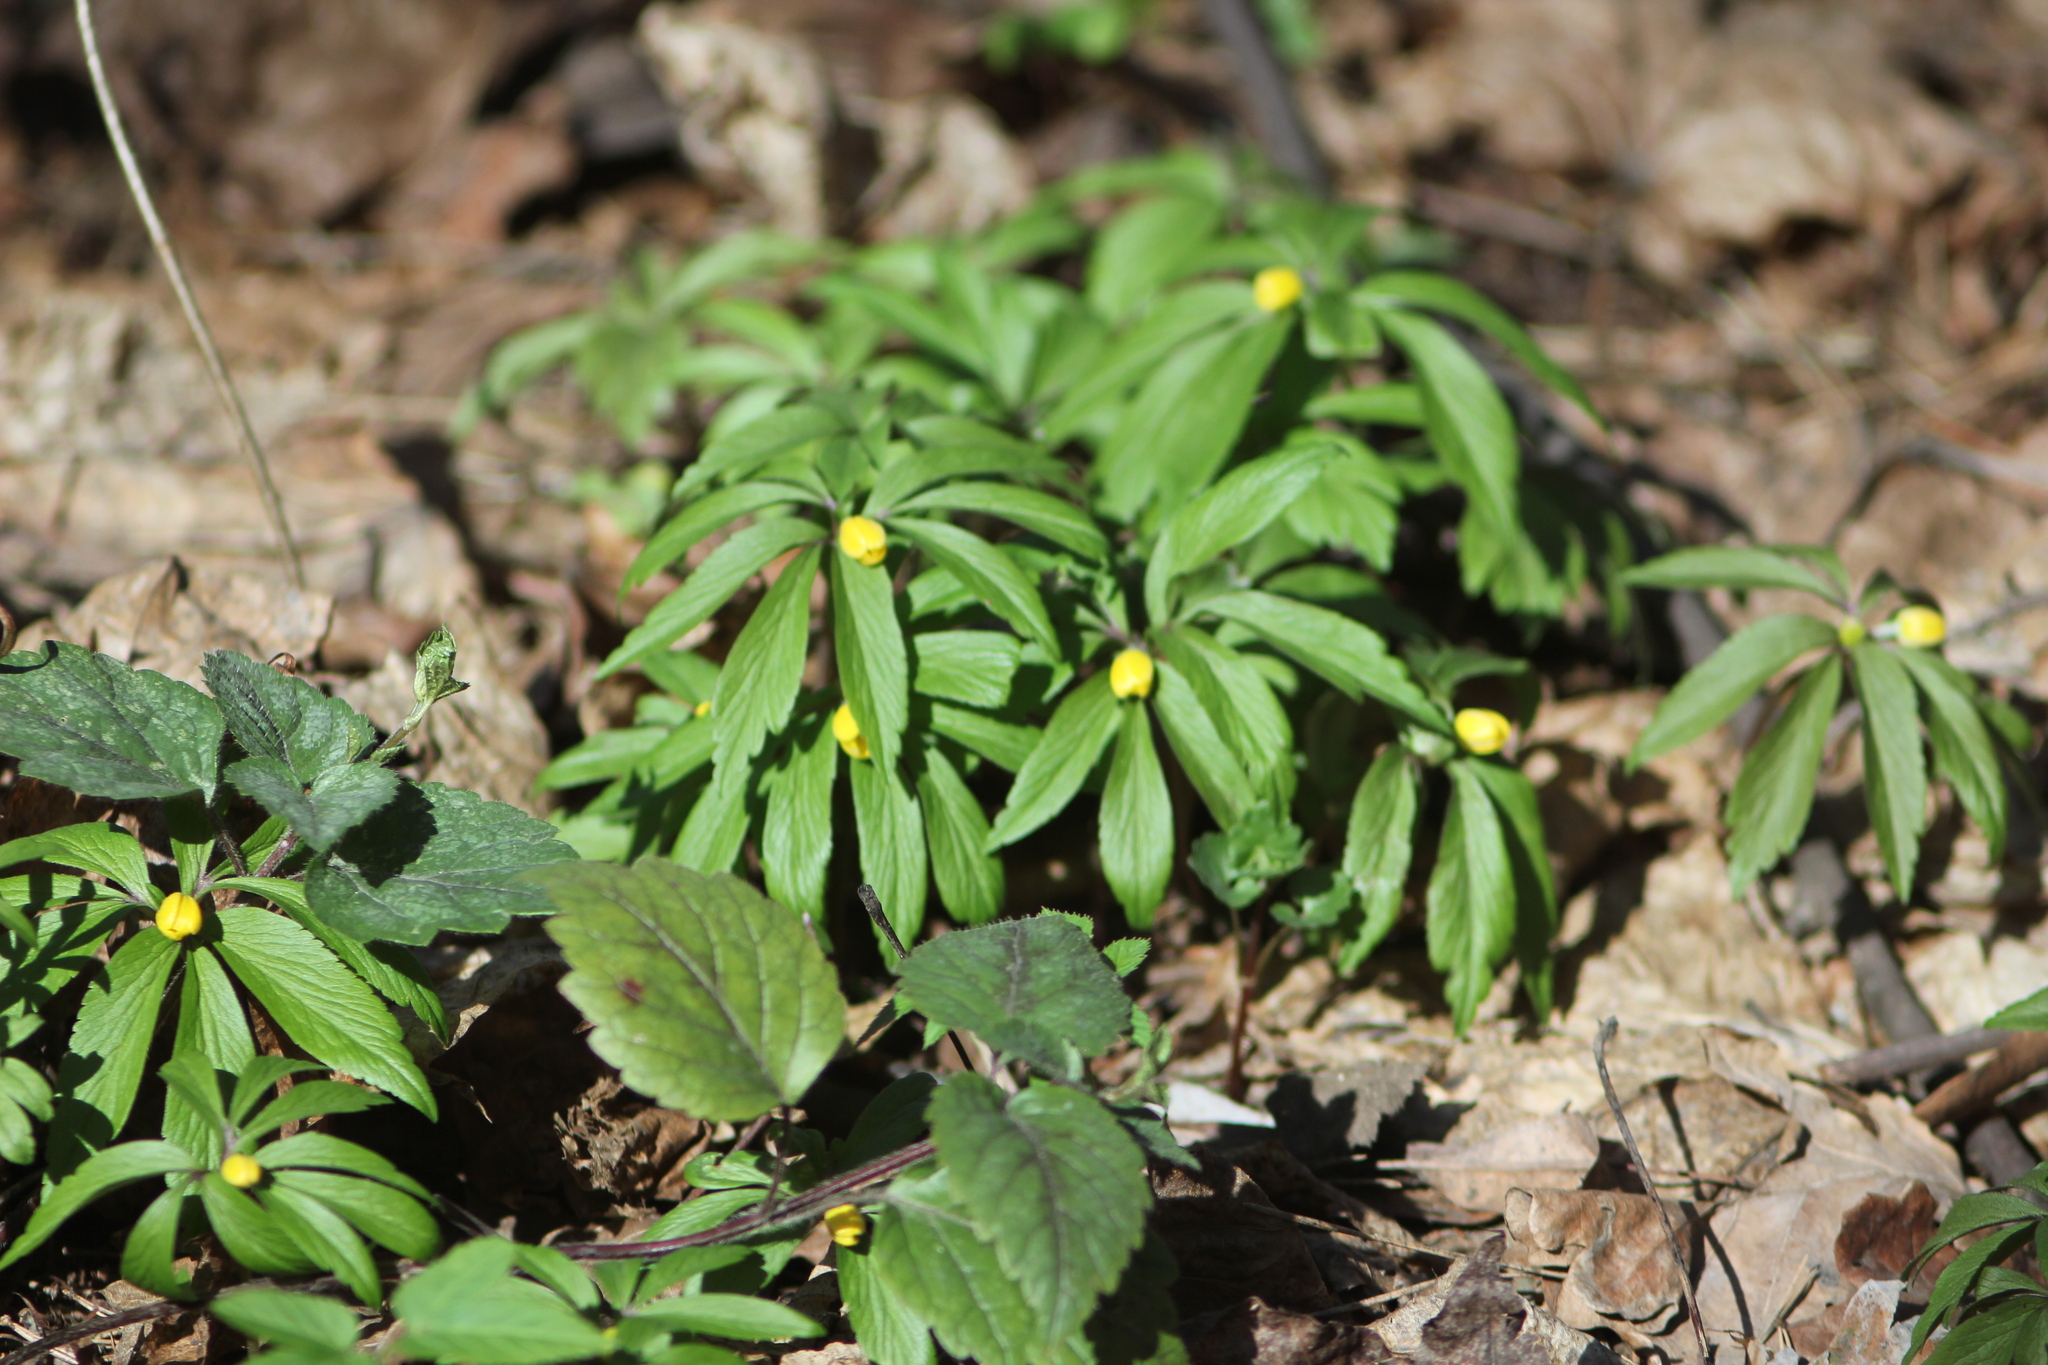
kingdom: Plantae
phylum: Tracheophyta
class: Magnoliopsida
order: Ranunculales
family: Ranunculaceae
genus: Anemone
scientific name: Anemone ranunculoides
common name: Yellow anemone
